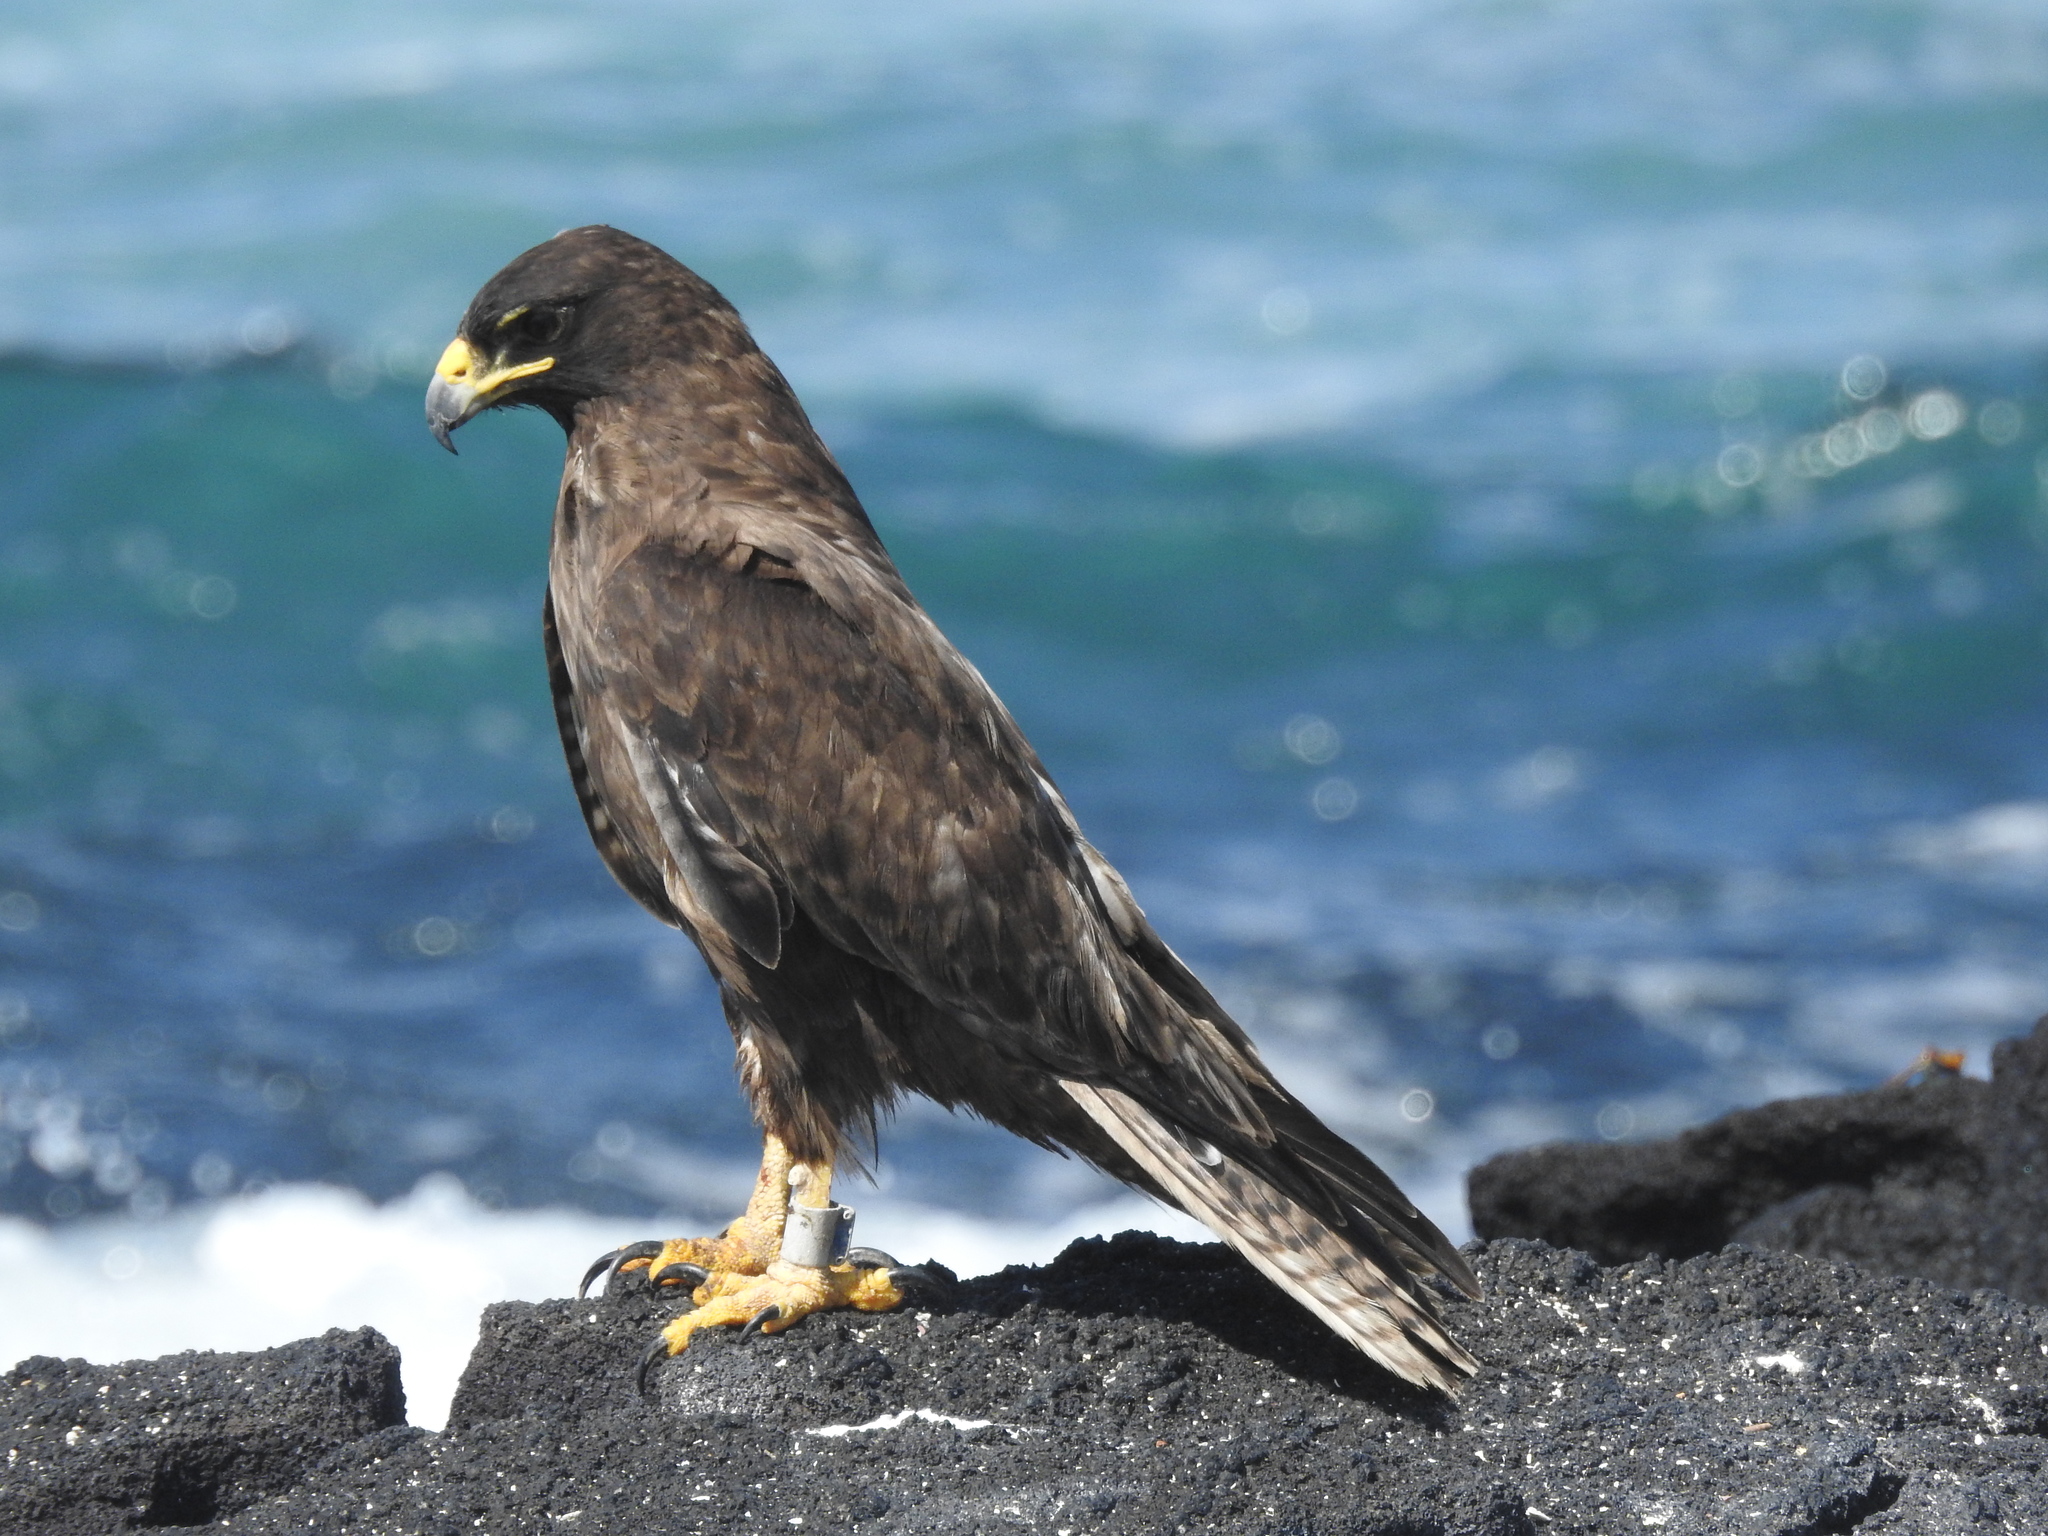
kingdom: Animalia
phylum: Chordata
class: Aves
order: Accipitriformes
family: Accipitridae
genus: Buteo
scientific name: Buteo galapagoensis
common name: Galapagos hawk
